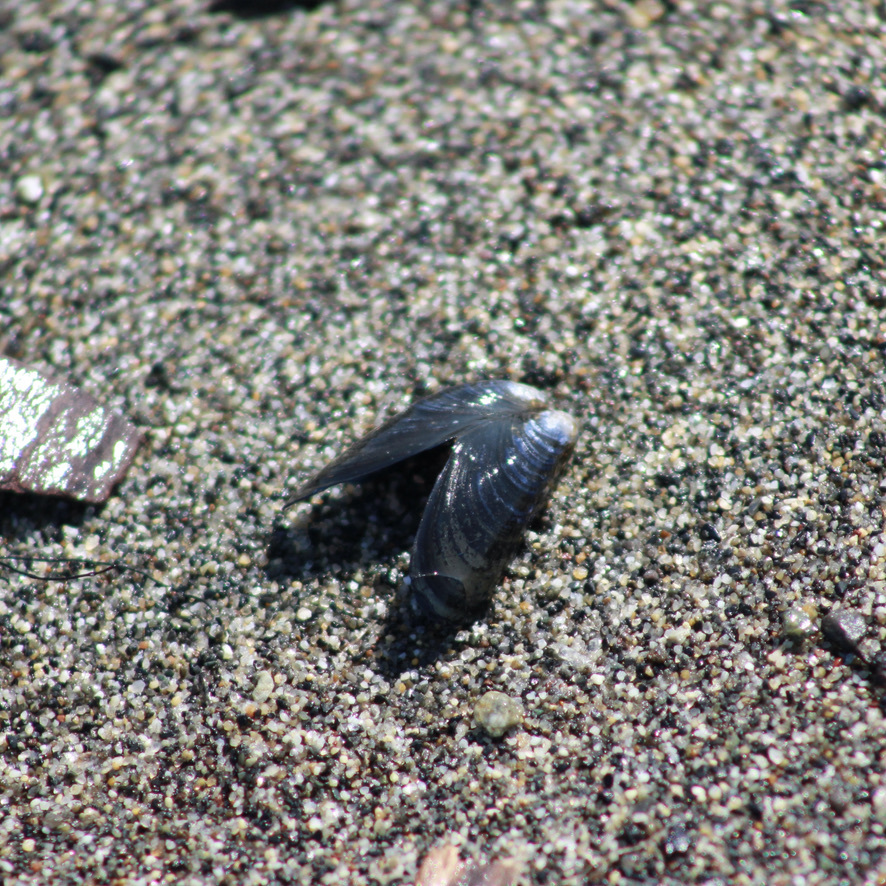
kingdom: Animalia
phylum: Mollusca
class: Bivalvia
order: Mytilida
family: Mytilidae
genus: Mytilus
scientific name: Mytilus trossulus
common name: Northern blue mussel
